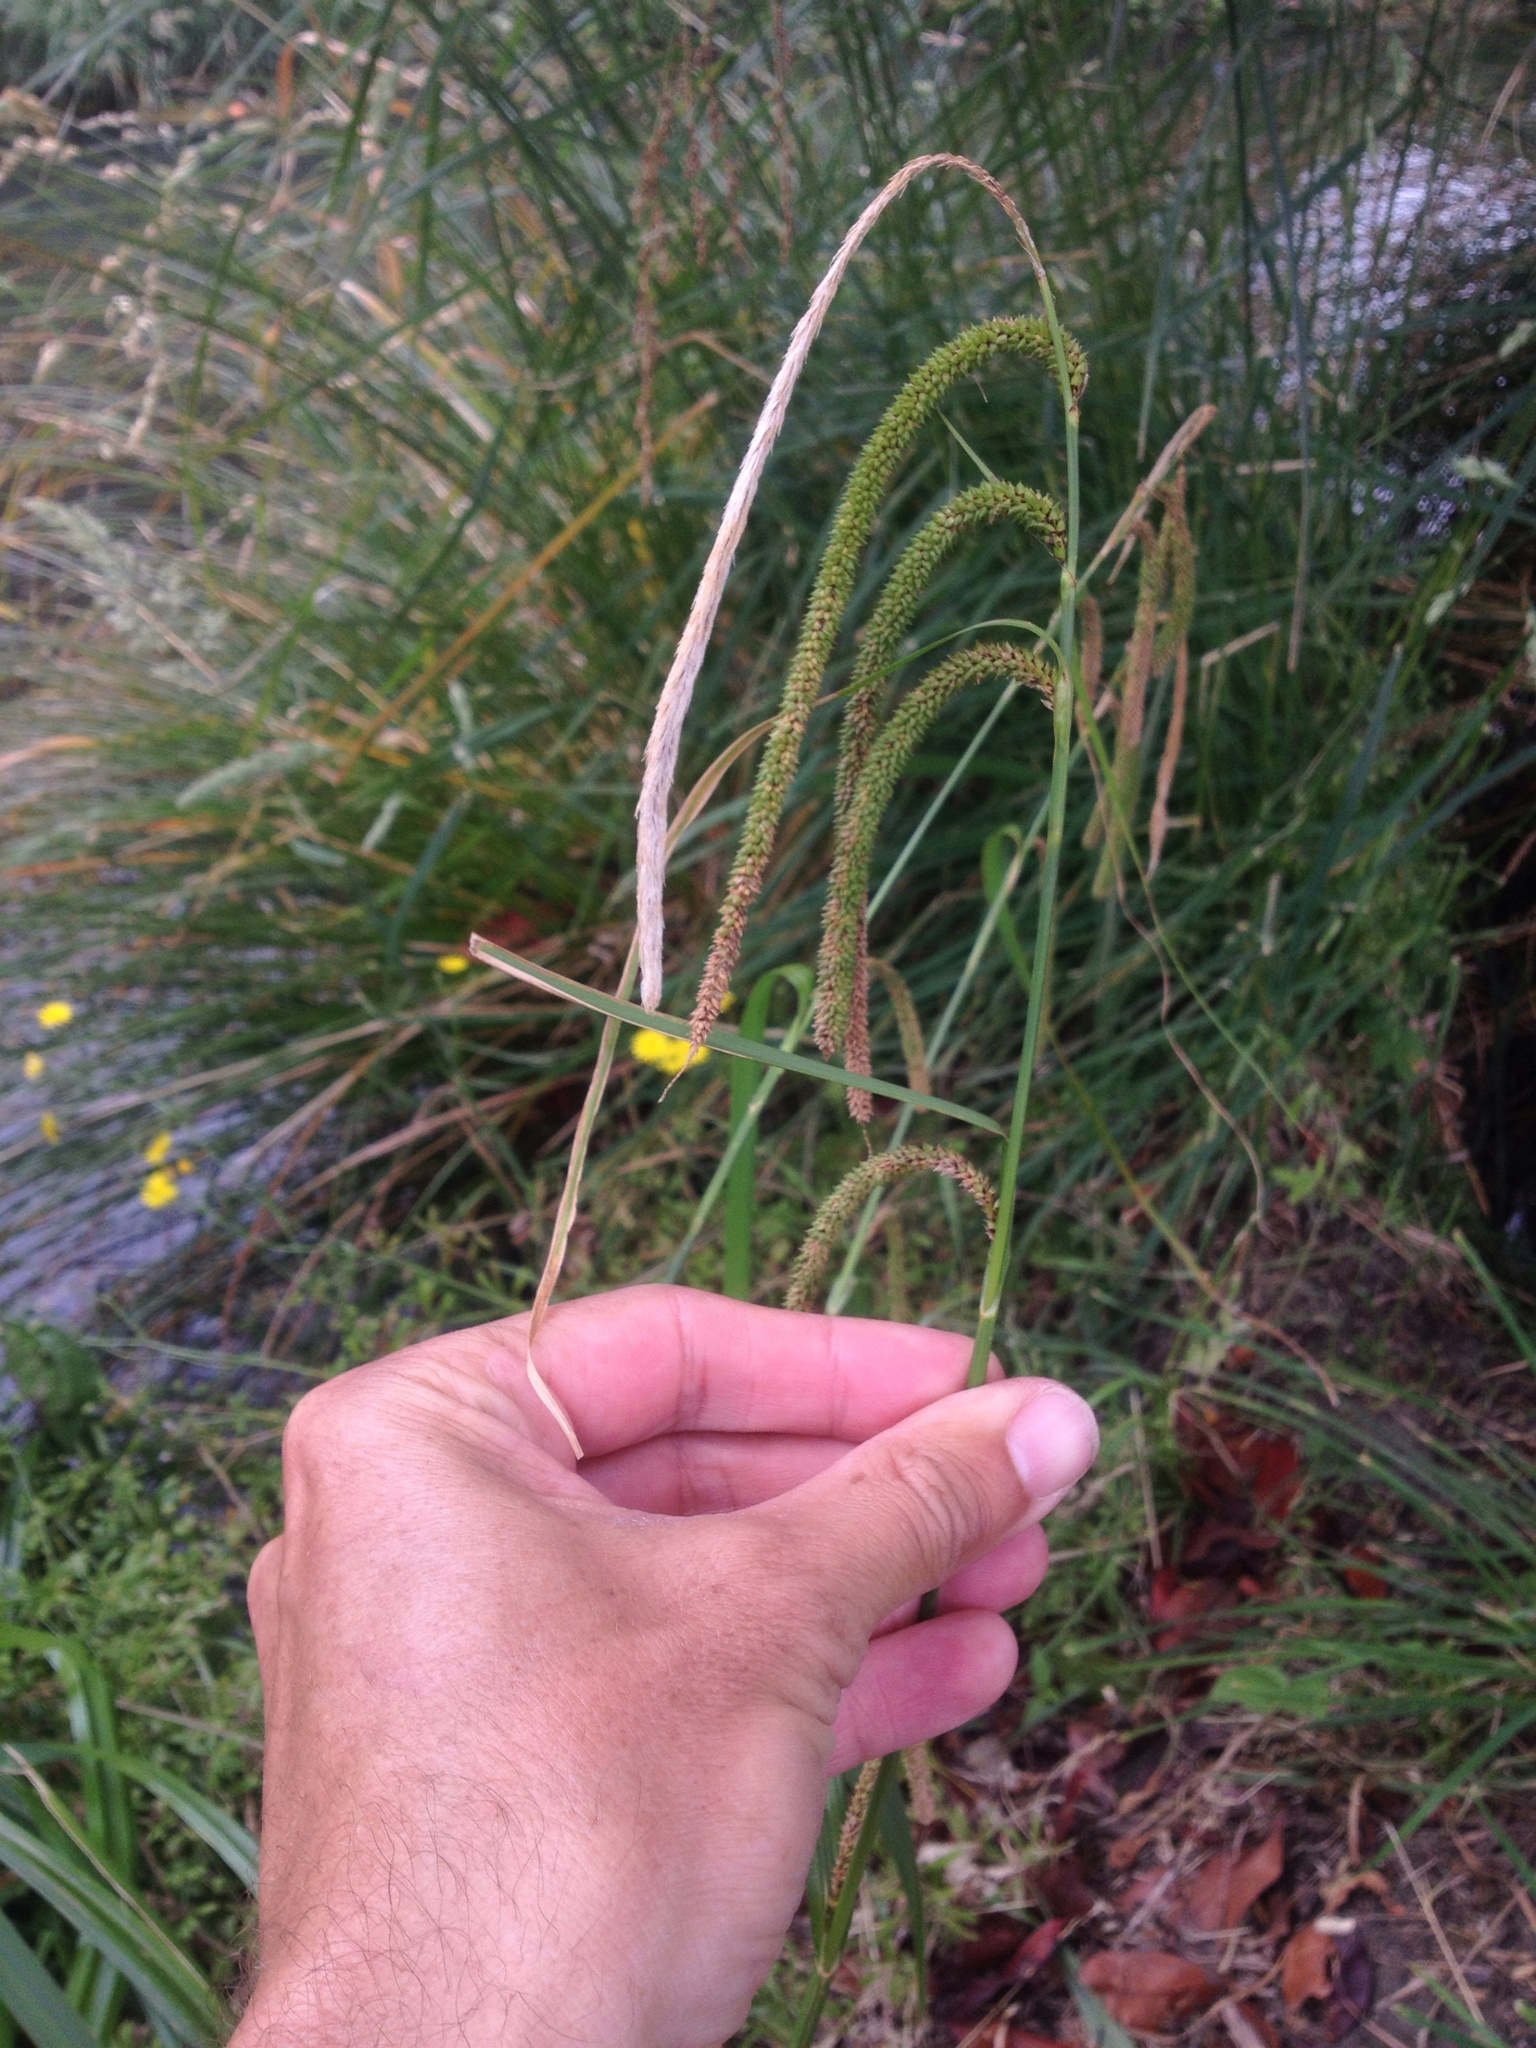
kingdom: Plantae
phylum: Tracheophyta
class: Liliopsida
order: Poales
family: Cyperaceae
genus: Carex
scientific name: Carex pendula
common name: Pendulous sedge
